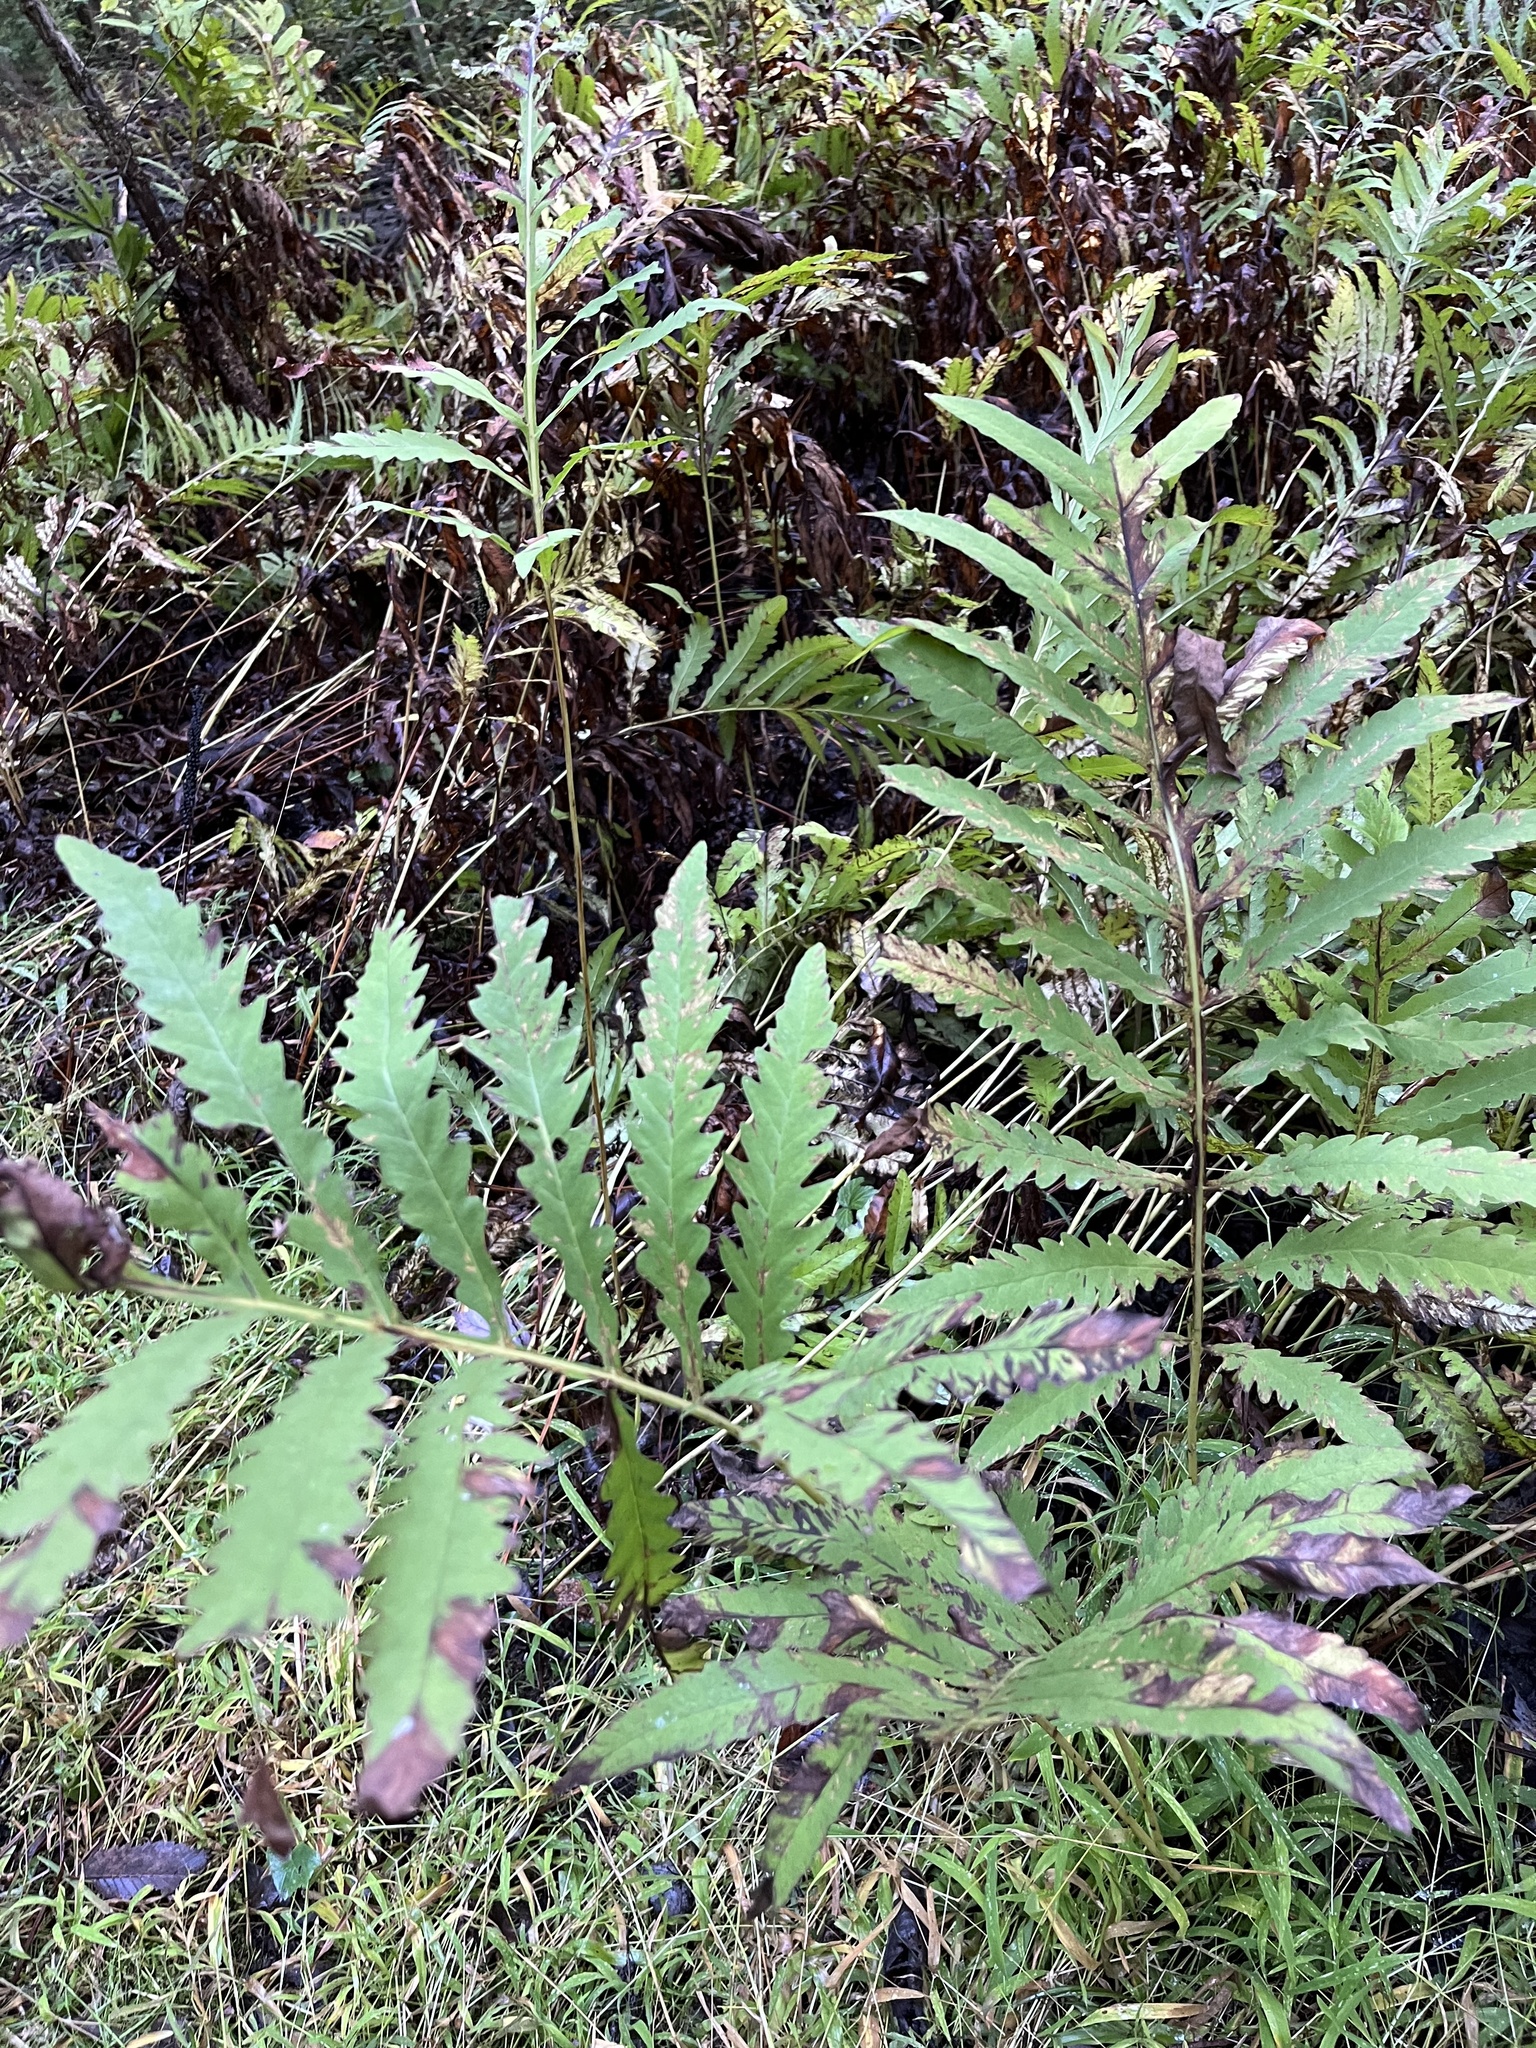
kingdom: Plantae
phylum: Tracheophyta
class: Polypodiopsida
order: Polypodiales
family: Onocleaceae
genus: Onoclea
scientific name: Onoclea sensibilis
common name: Sensitive fern
